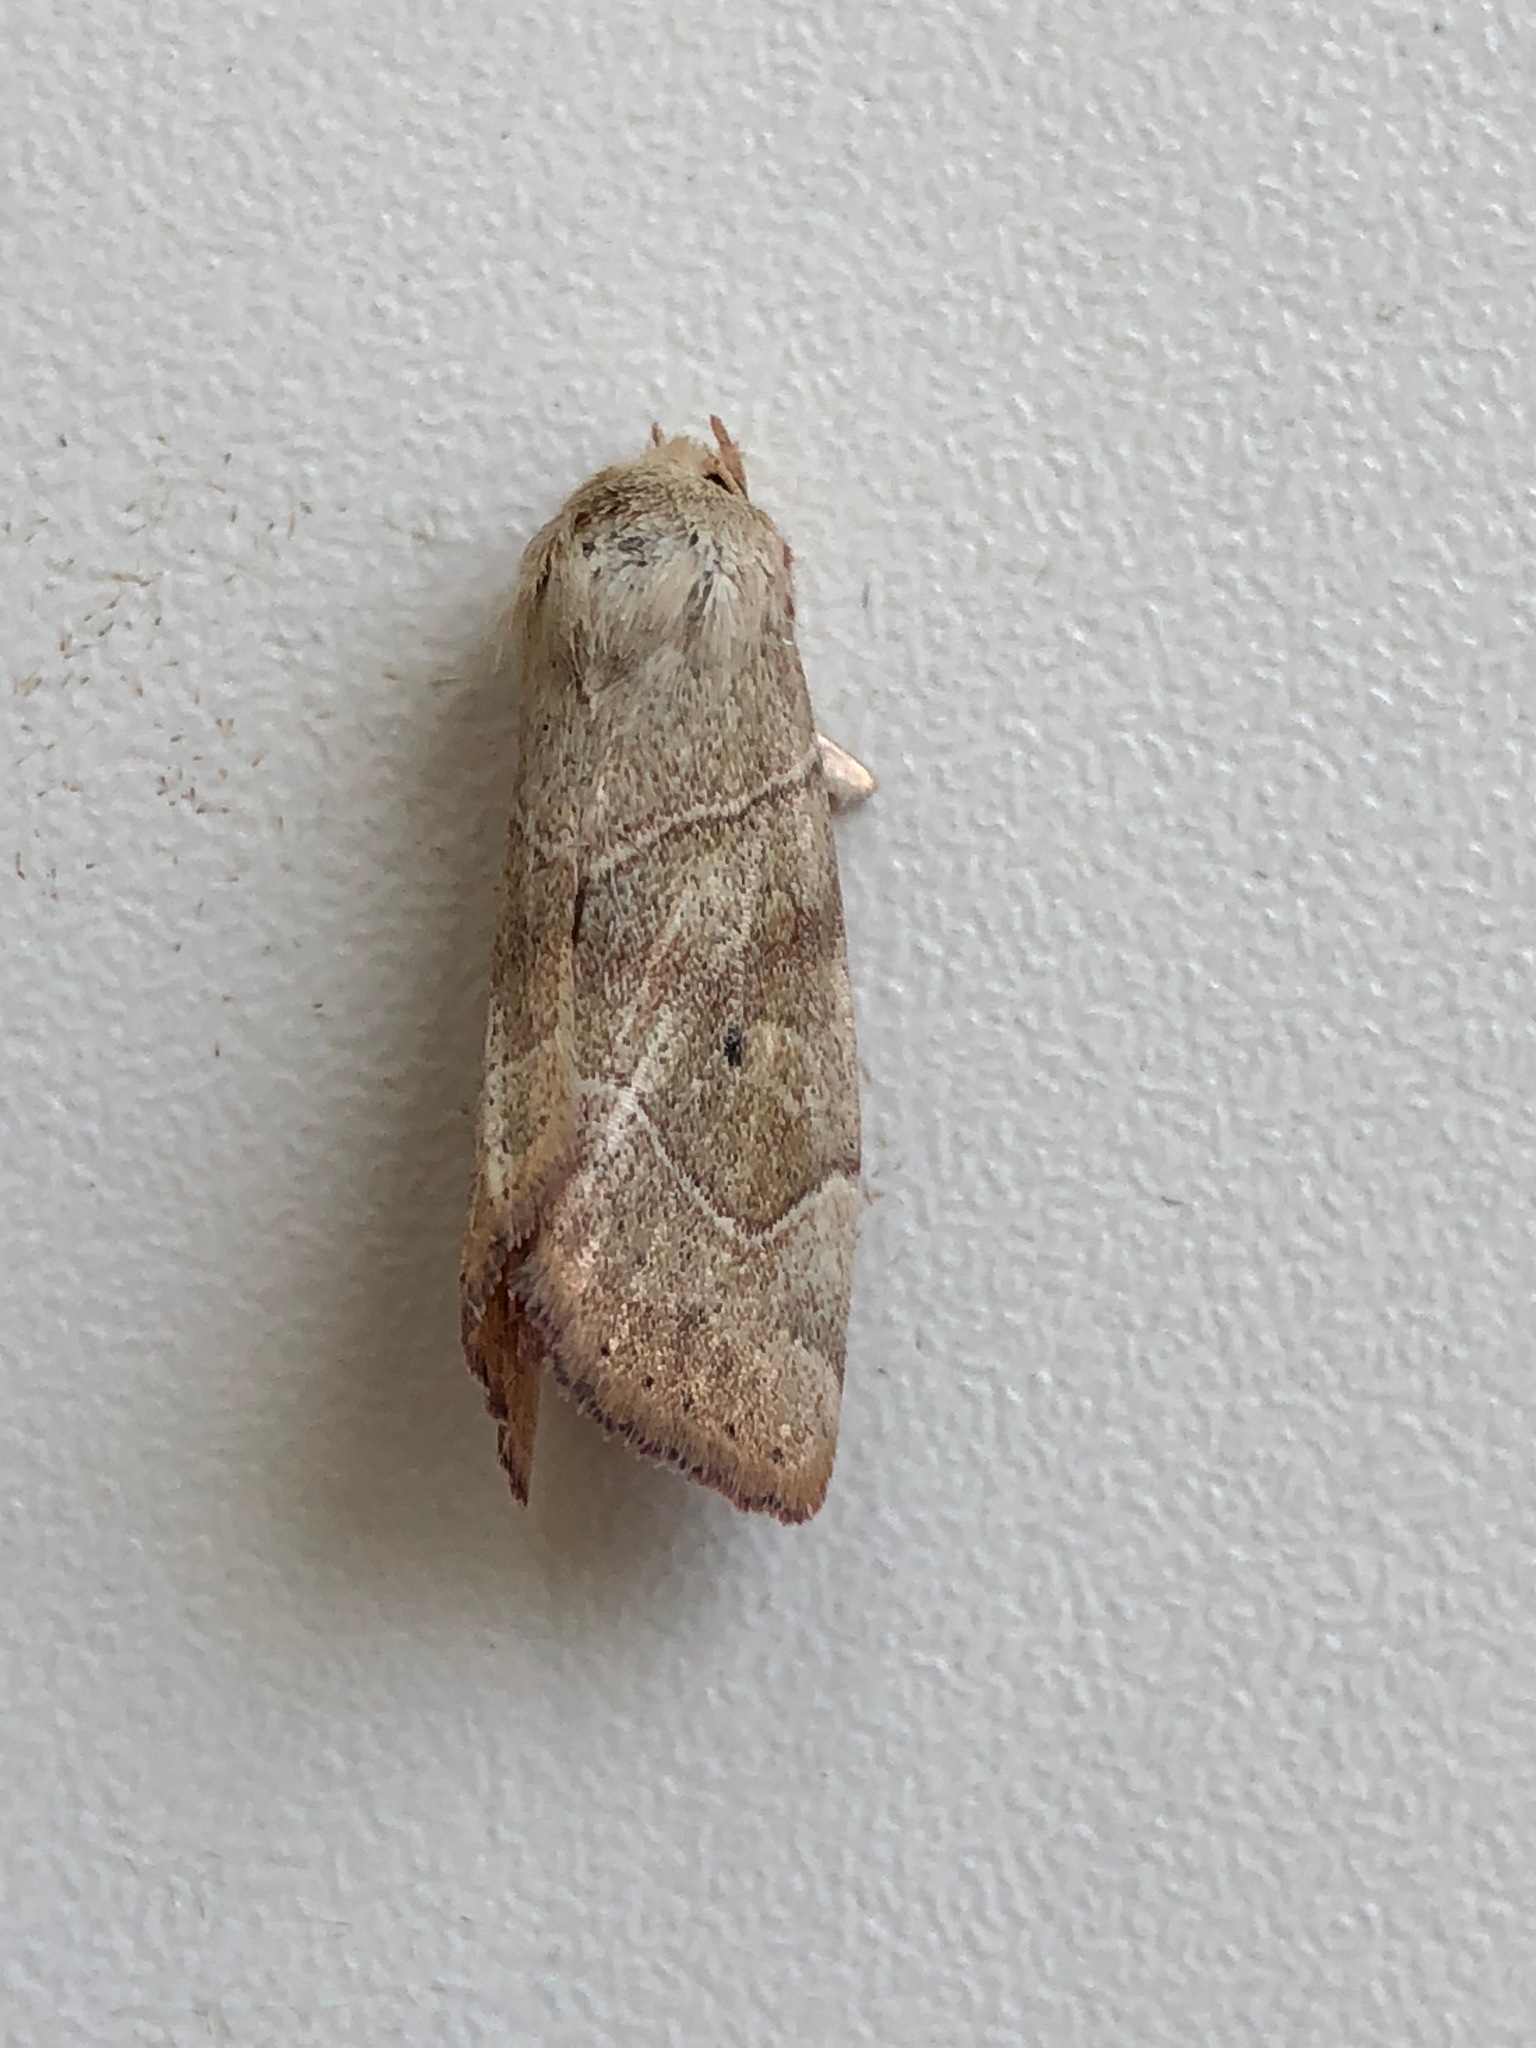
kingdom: Animalia
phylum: Arthropoda
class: Insecta
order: Lepidoptera
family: Noctuidae
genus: Cosmia
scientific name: Cosmia trapezina
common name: Dun-bar
